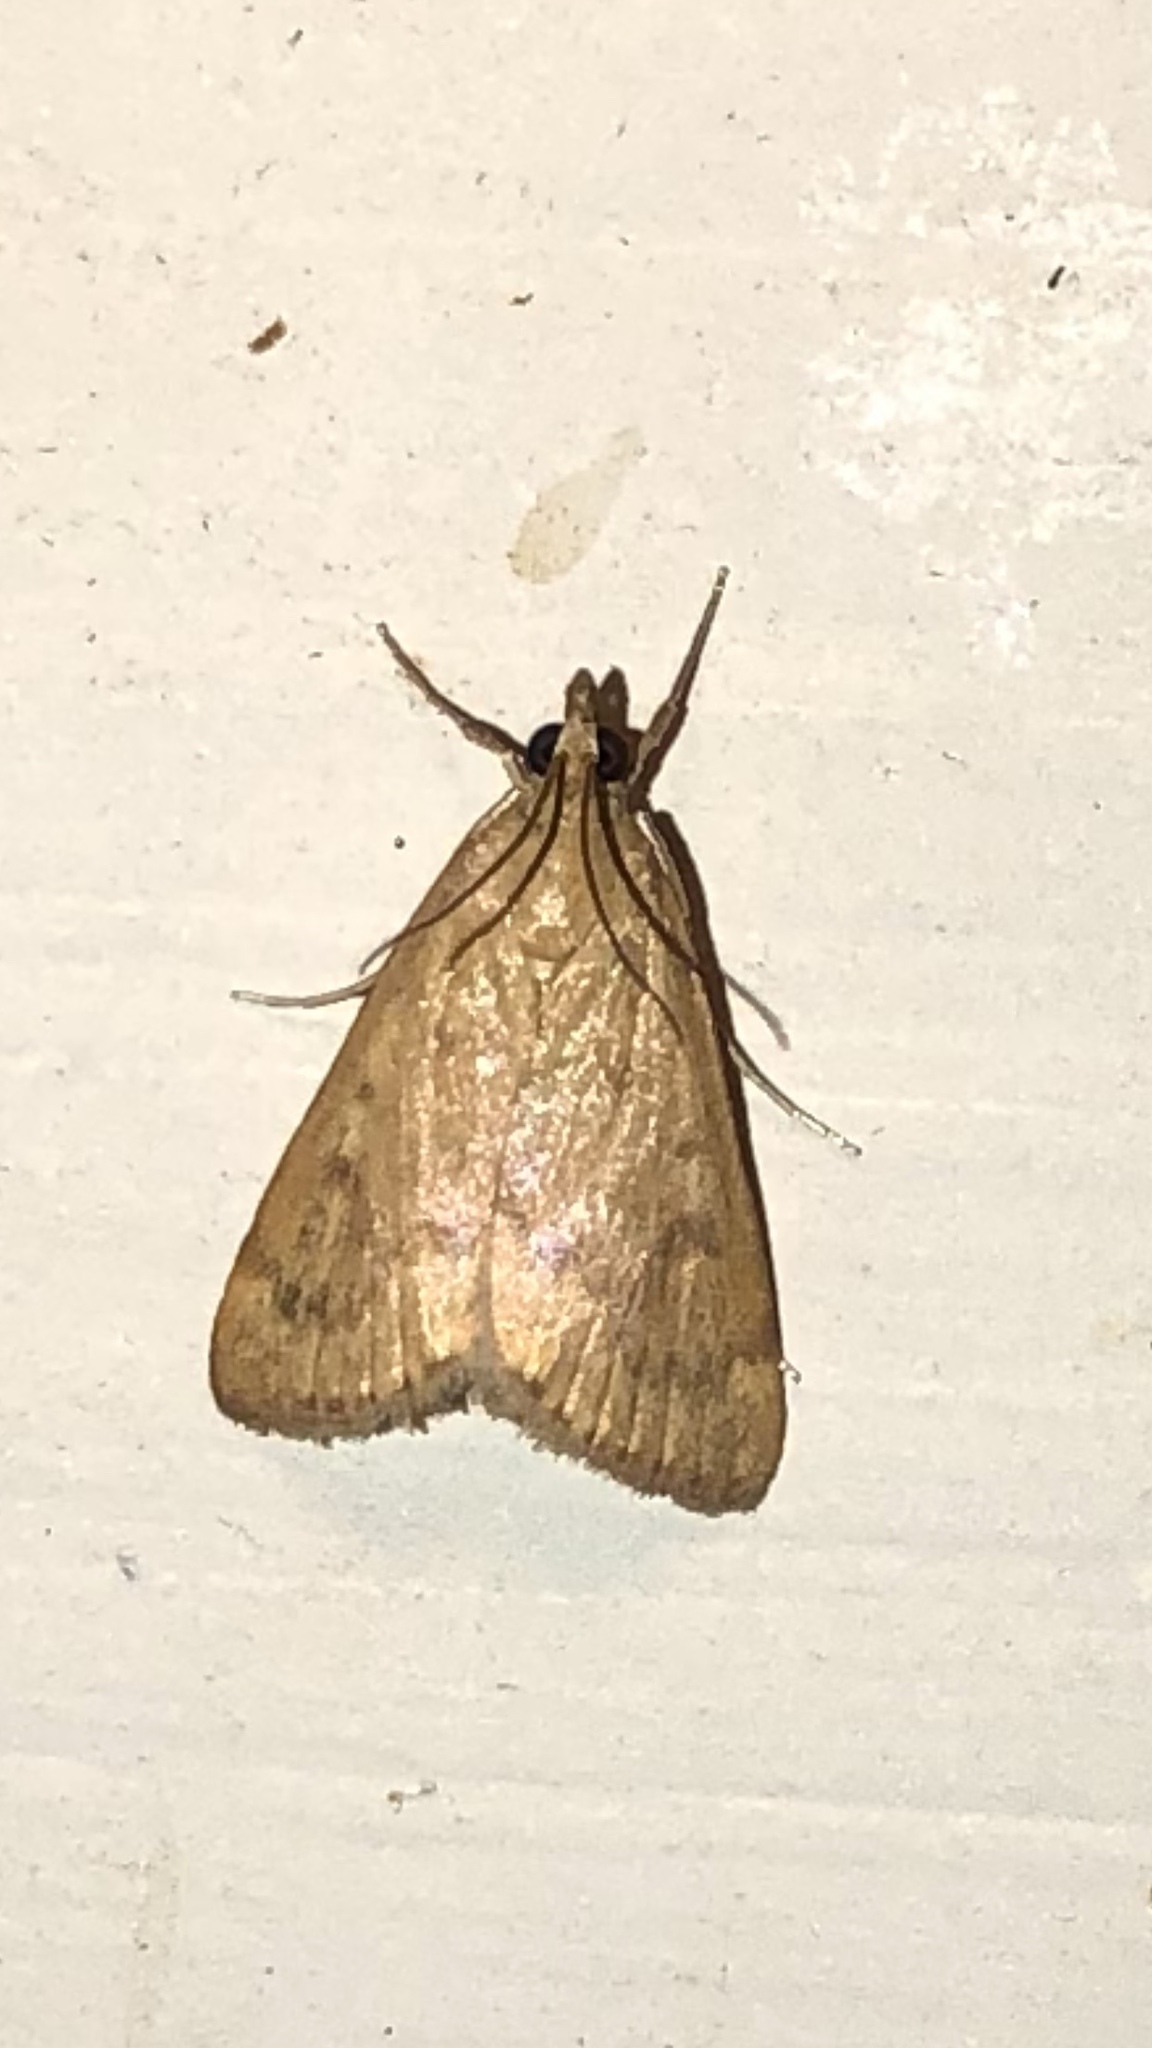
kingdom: Animalia
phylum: Arthropoda
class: Insecta
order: Lepidoptera
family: Crambidae
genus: Achyra
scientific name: Achyra rantalis
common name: Garden webworm
